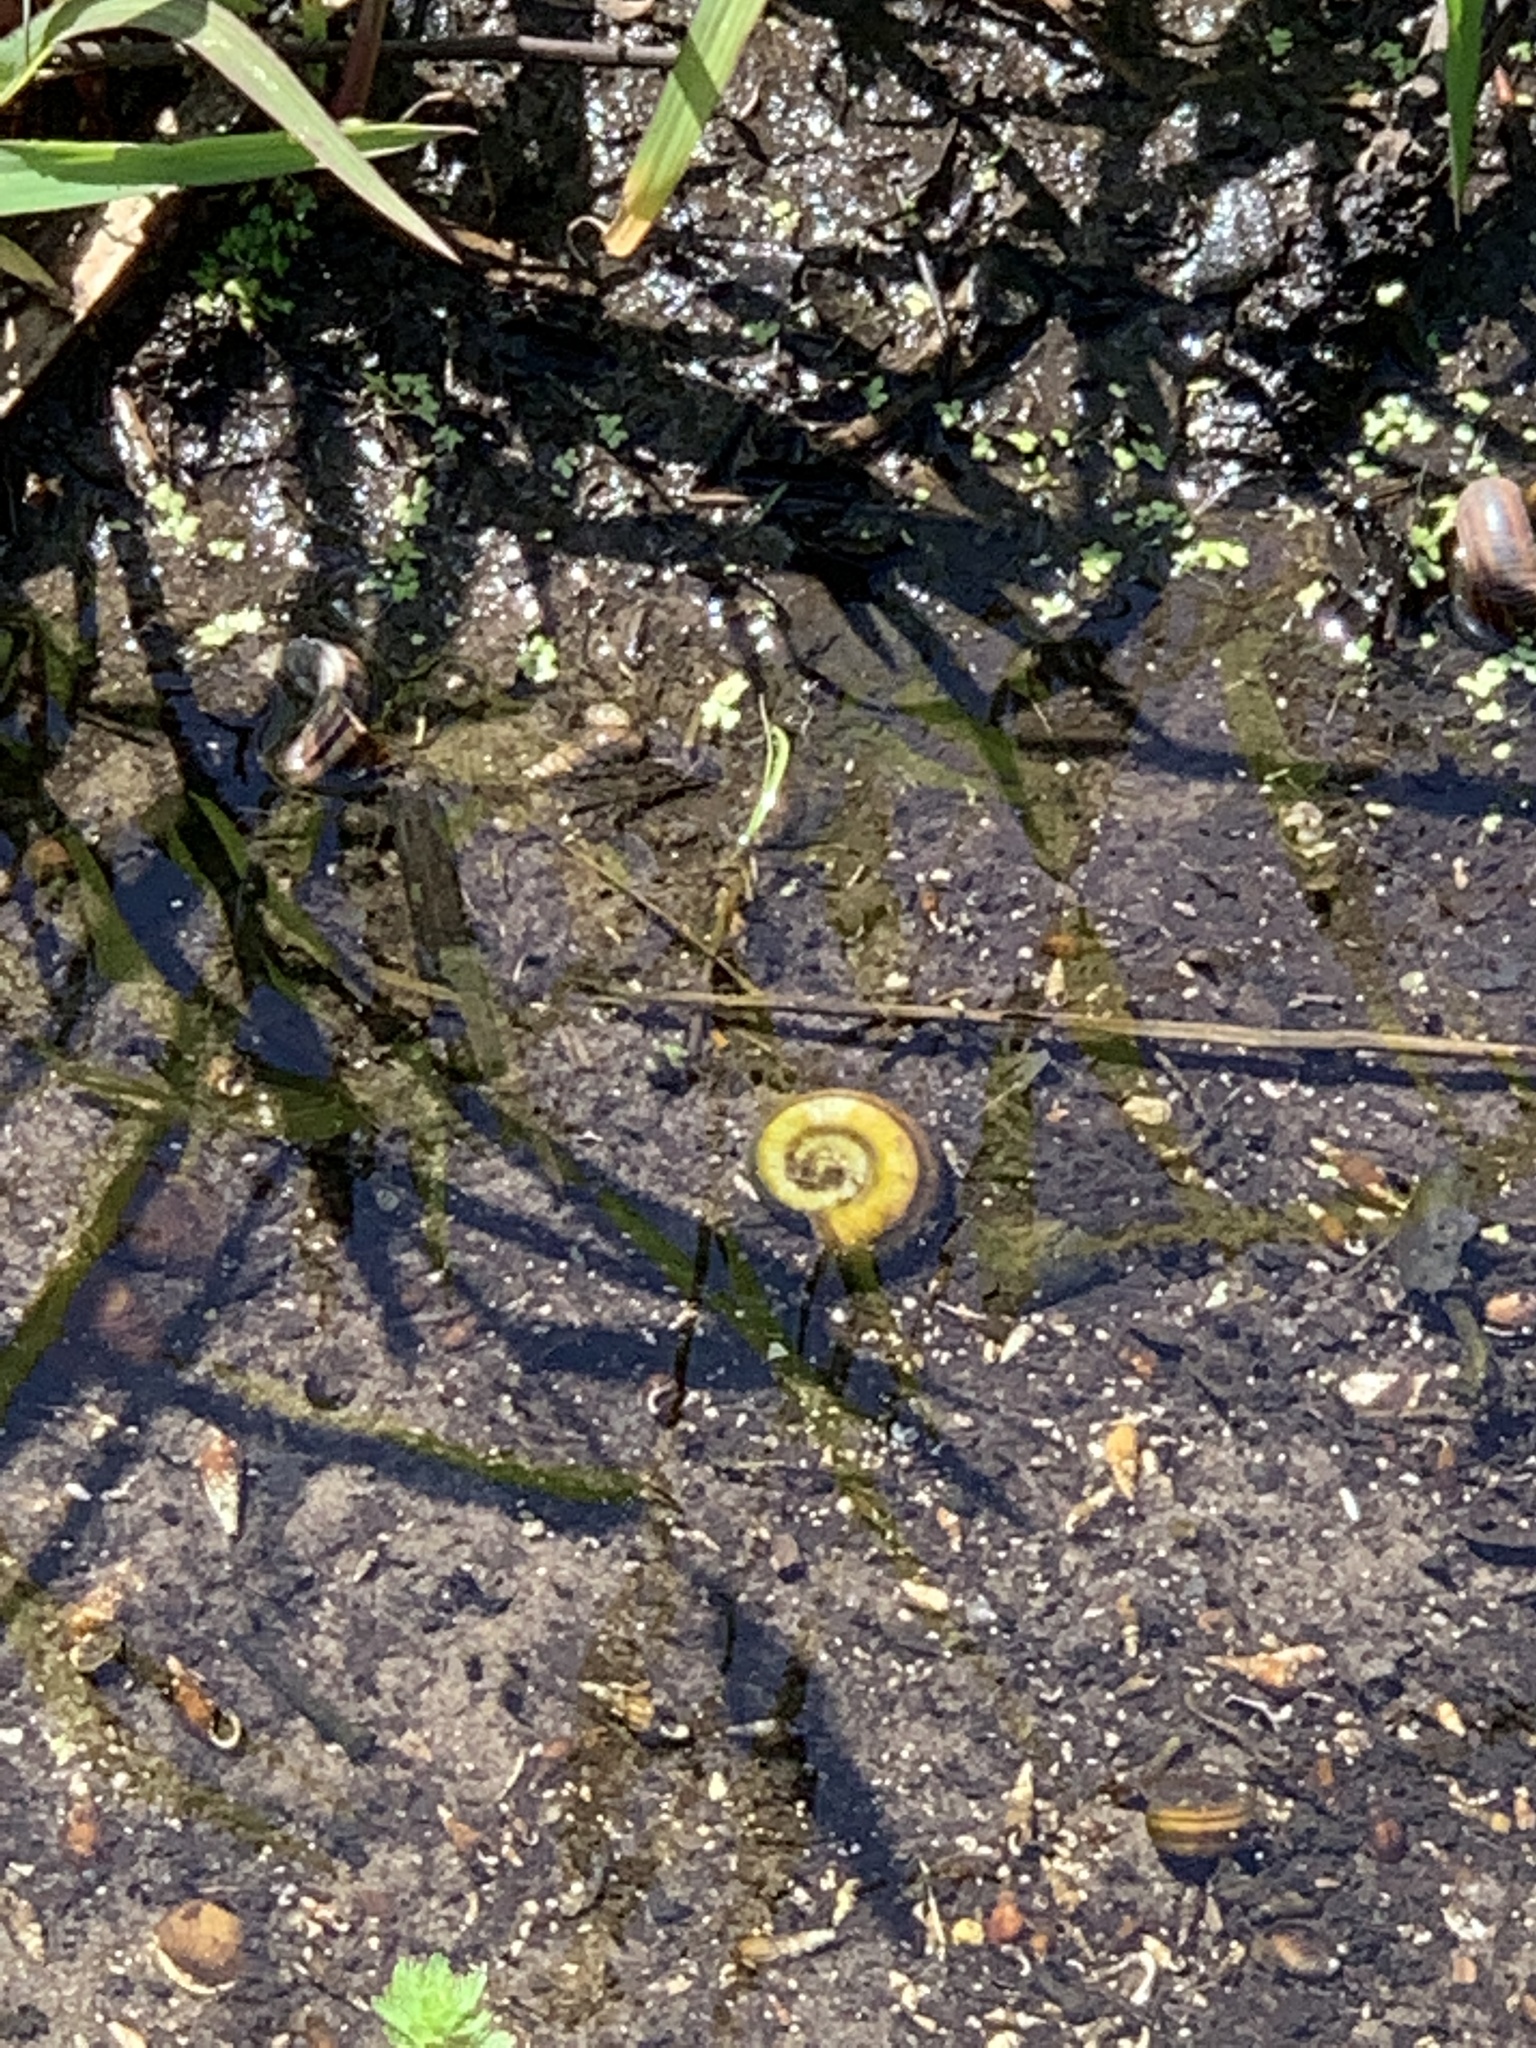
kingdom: Animalia
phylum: Mollusca
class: Gastropoda
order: Architaenioglossa
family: Ampullariidae
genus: Marisa
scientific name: Marisa cornuarietis
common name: Giant ramshorn snail
